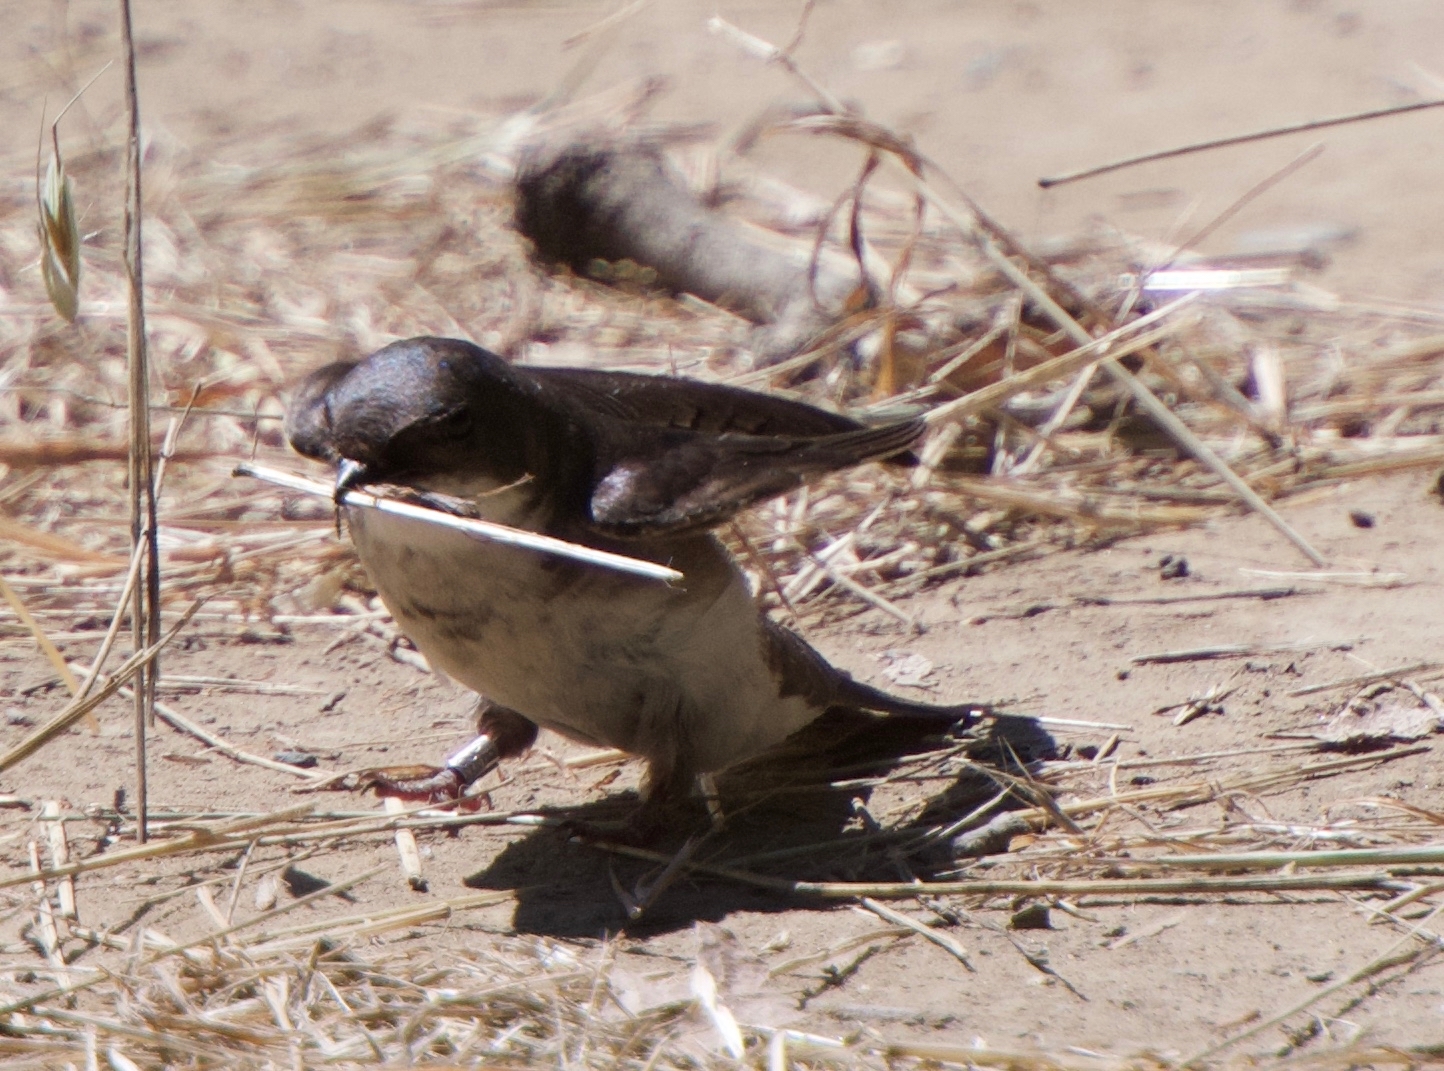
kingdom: Animalia
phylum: Chordata
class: Aves
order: Passeriformes
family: Hirundinidae
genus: Tachycineta
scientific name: Tachycineta bicolor
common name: Tree swallow
